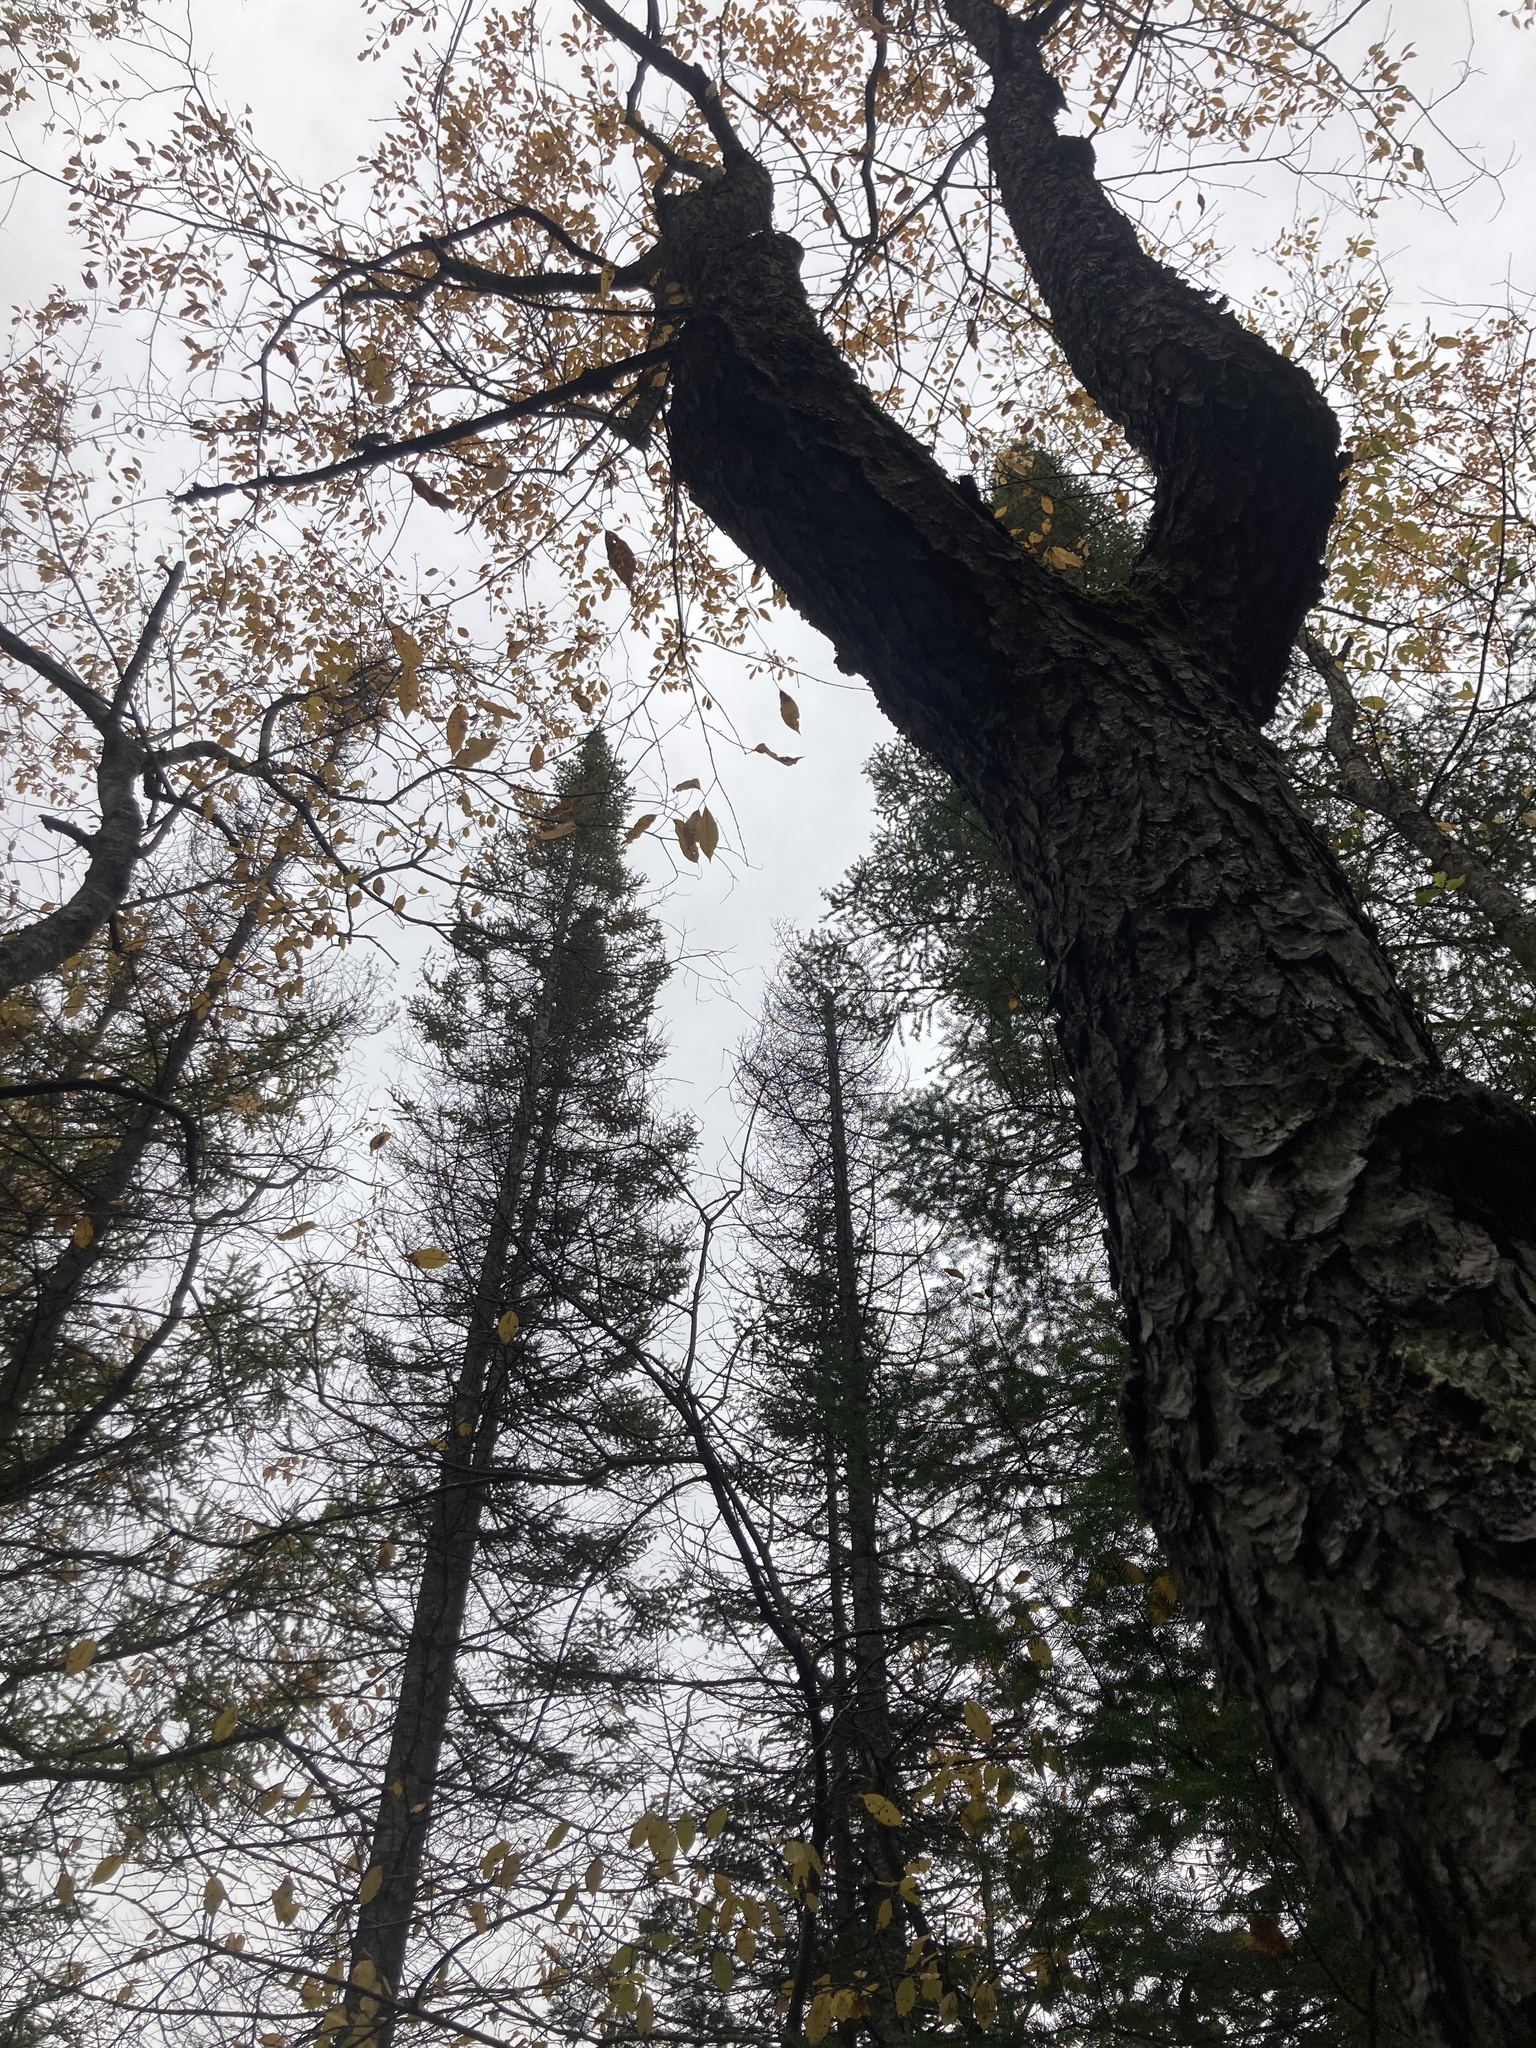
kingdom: Plantae
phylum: Tracheophyta
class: Magnoliopsida
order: Rosales
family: Rosaceae
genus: Prunus
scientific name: Prunus serotina
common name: Black cherry
